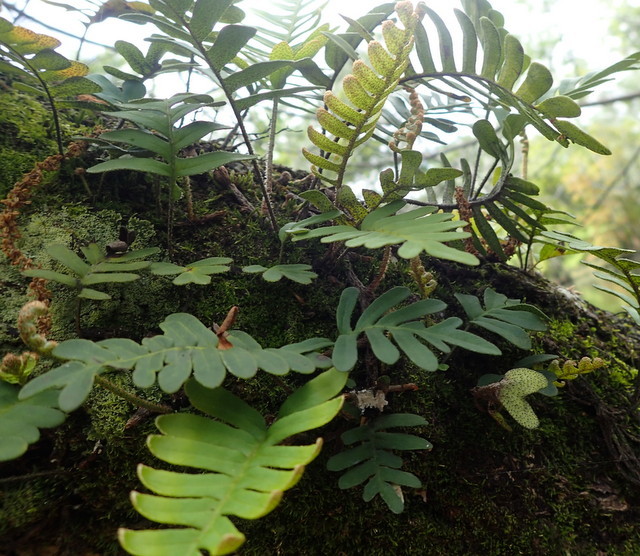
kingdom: Plantae
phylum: Tracheophyta
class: Polypodiopsida
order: Polypodiales
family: Polypodiaceae
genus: Pleopeltis
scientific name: Pleopeltis michauxiana
